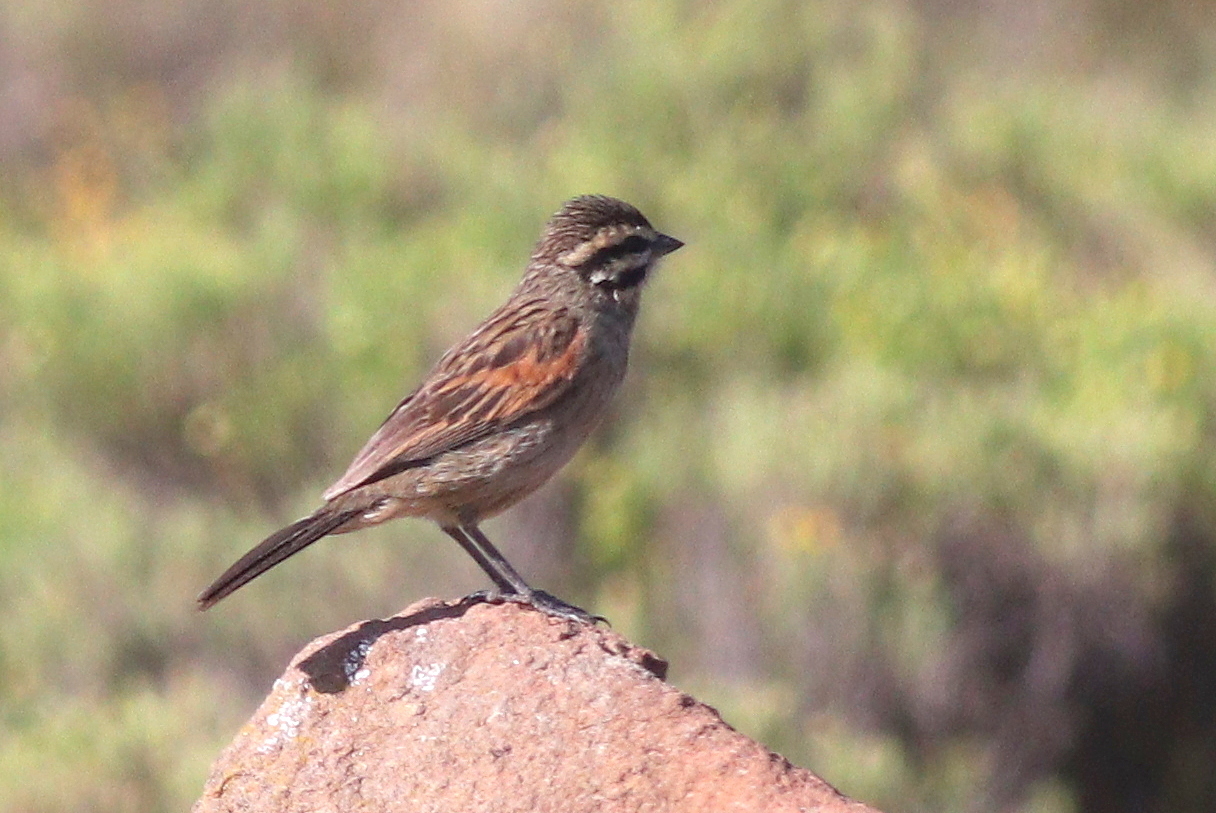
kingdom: Animalia
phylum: Chordata
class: Aves
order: Passeriformes
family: Emberizidae
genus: Emberiza
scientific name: Emberiza capensis
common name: Cape bunting
